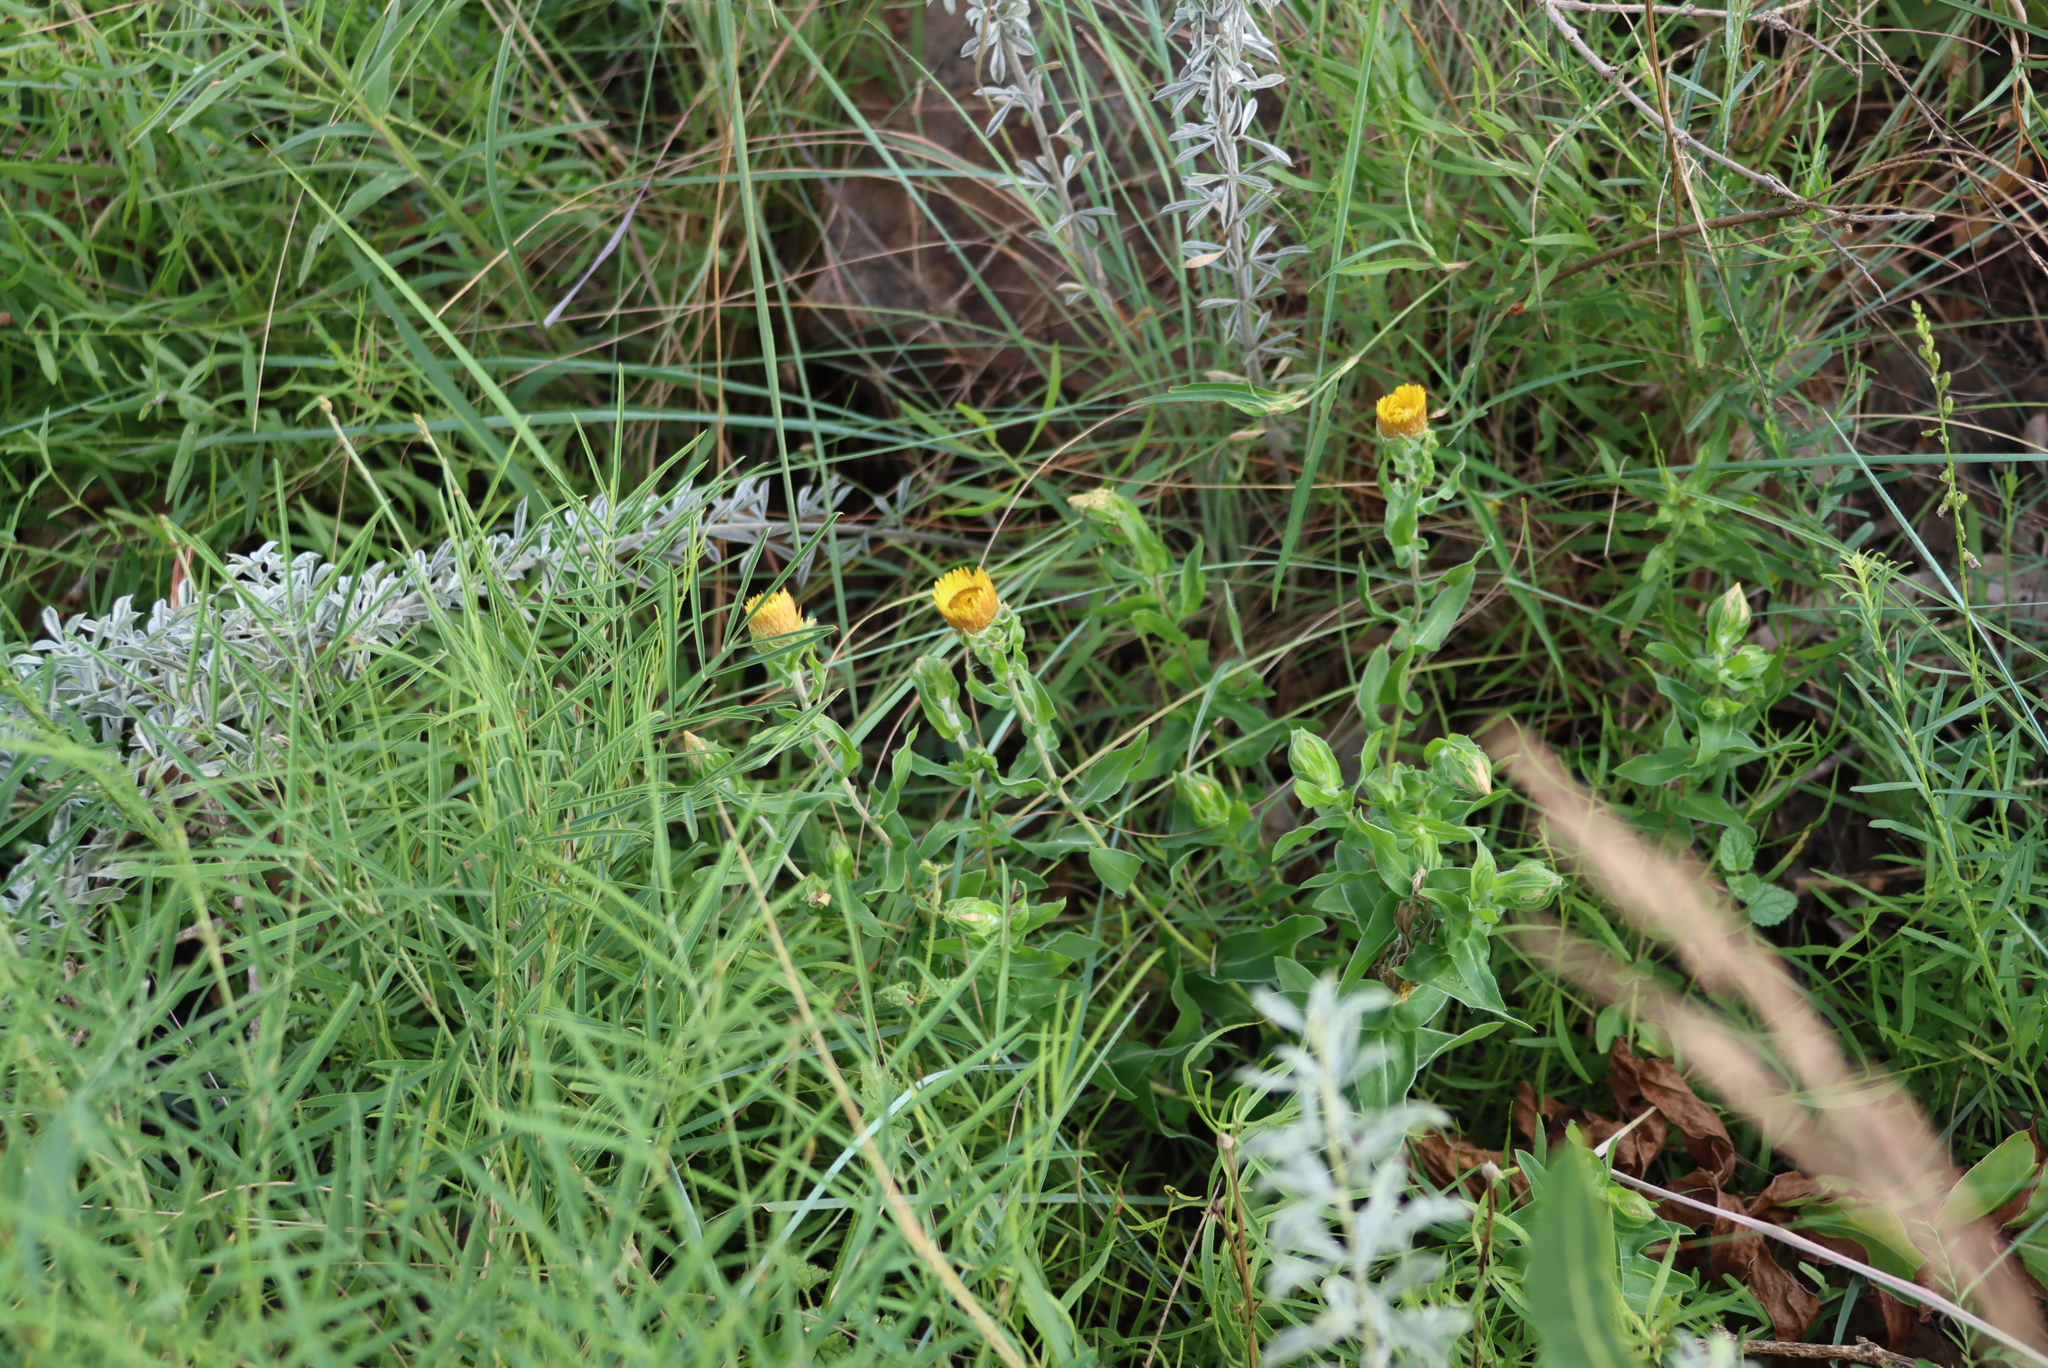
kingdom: Plantae
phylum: Tracheophyta
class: Magnoliopsida
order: Asterales
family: Asteraceae
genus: Helichrysum
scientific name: Helichrysum cooperi
